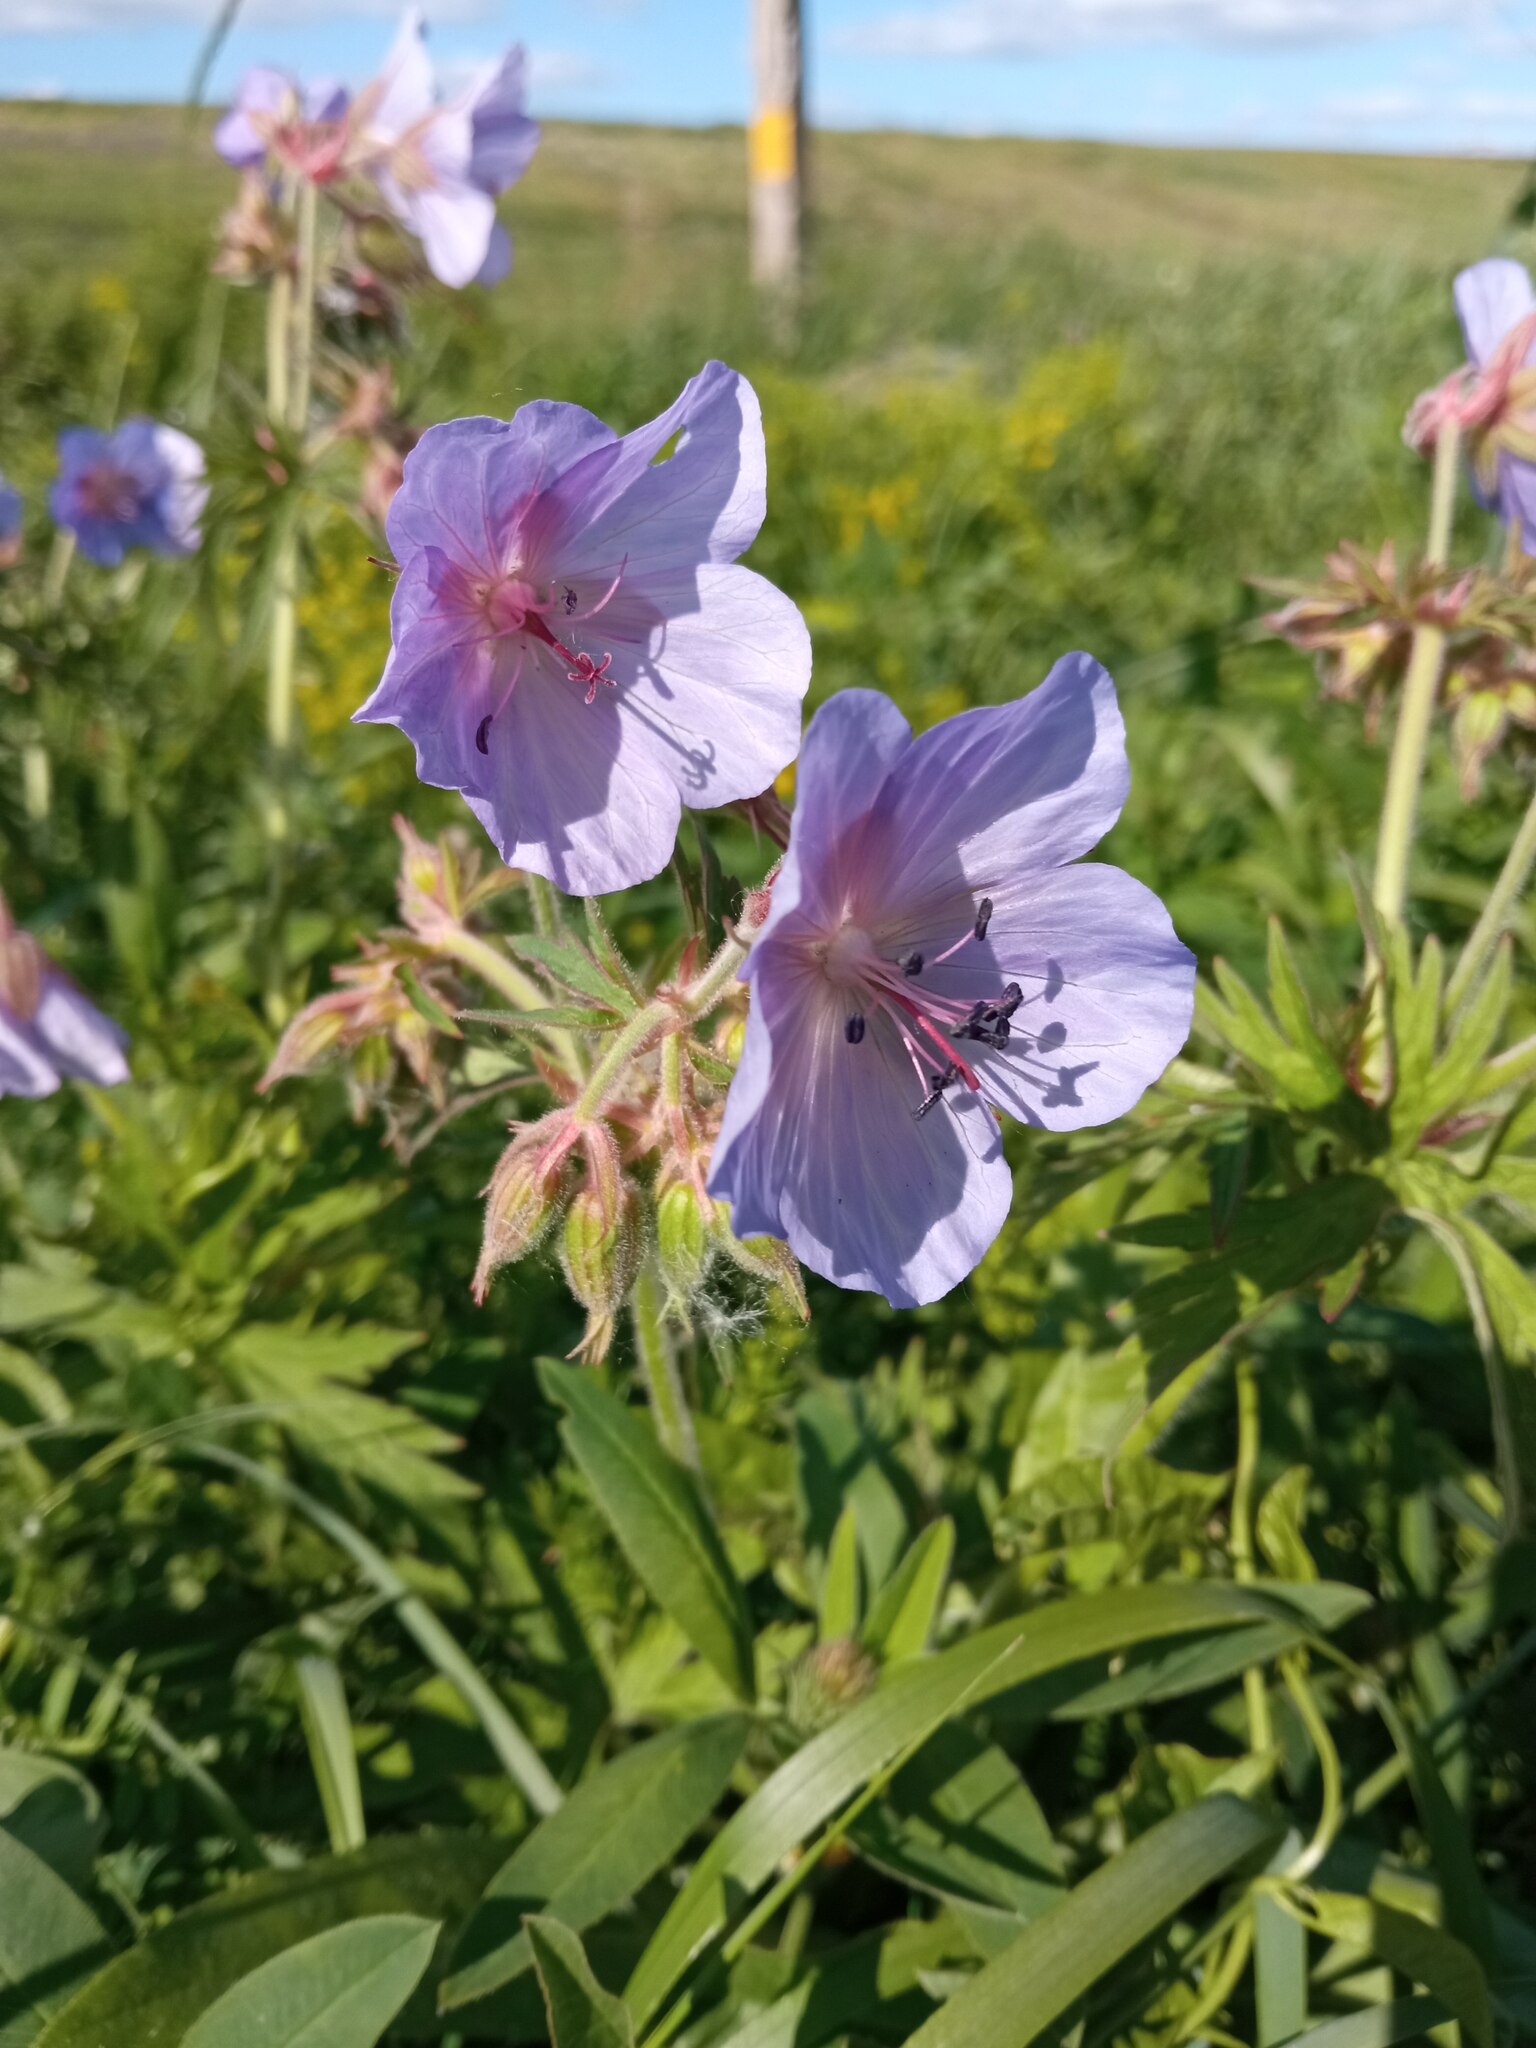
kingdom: Plantae
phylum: Tracheophyta
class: Magnoliopsida
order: Geraniales
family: Geraniaceae
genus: Geranium
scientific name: Geranium pratense
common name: Meadow crane's-bill
